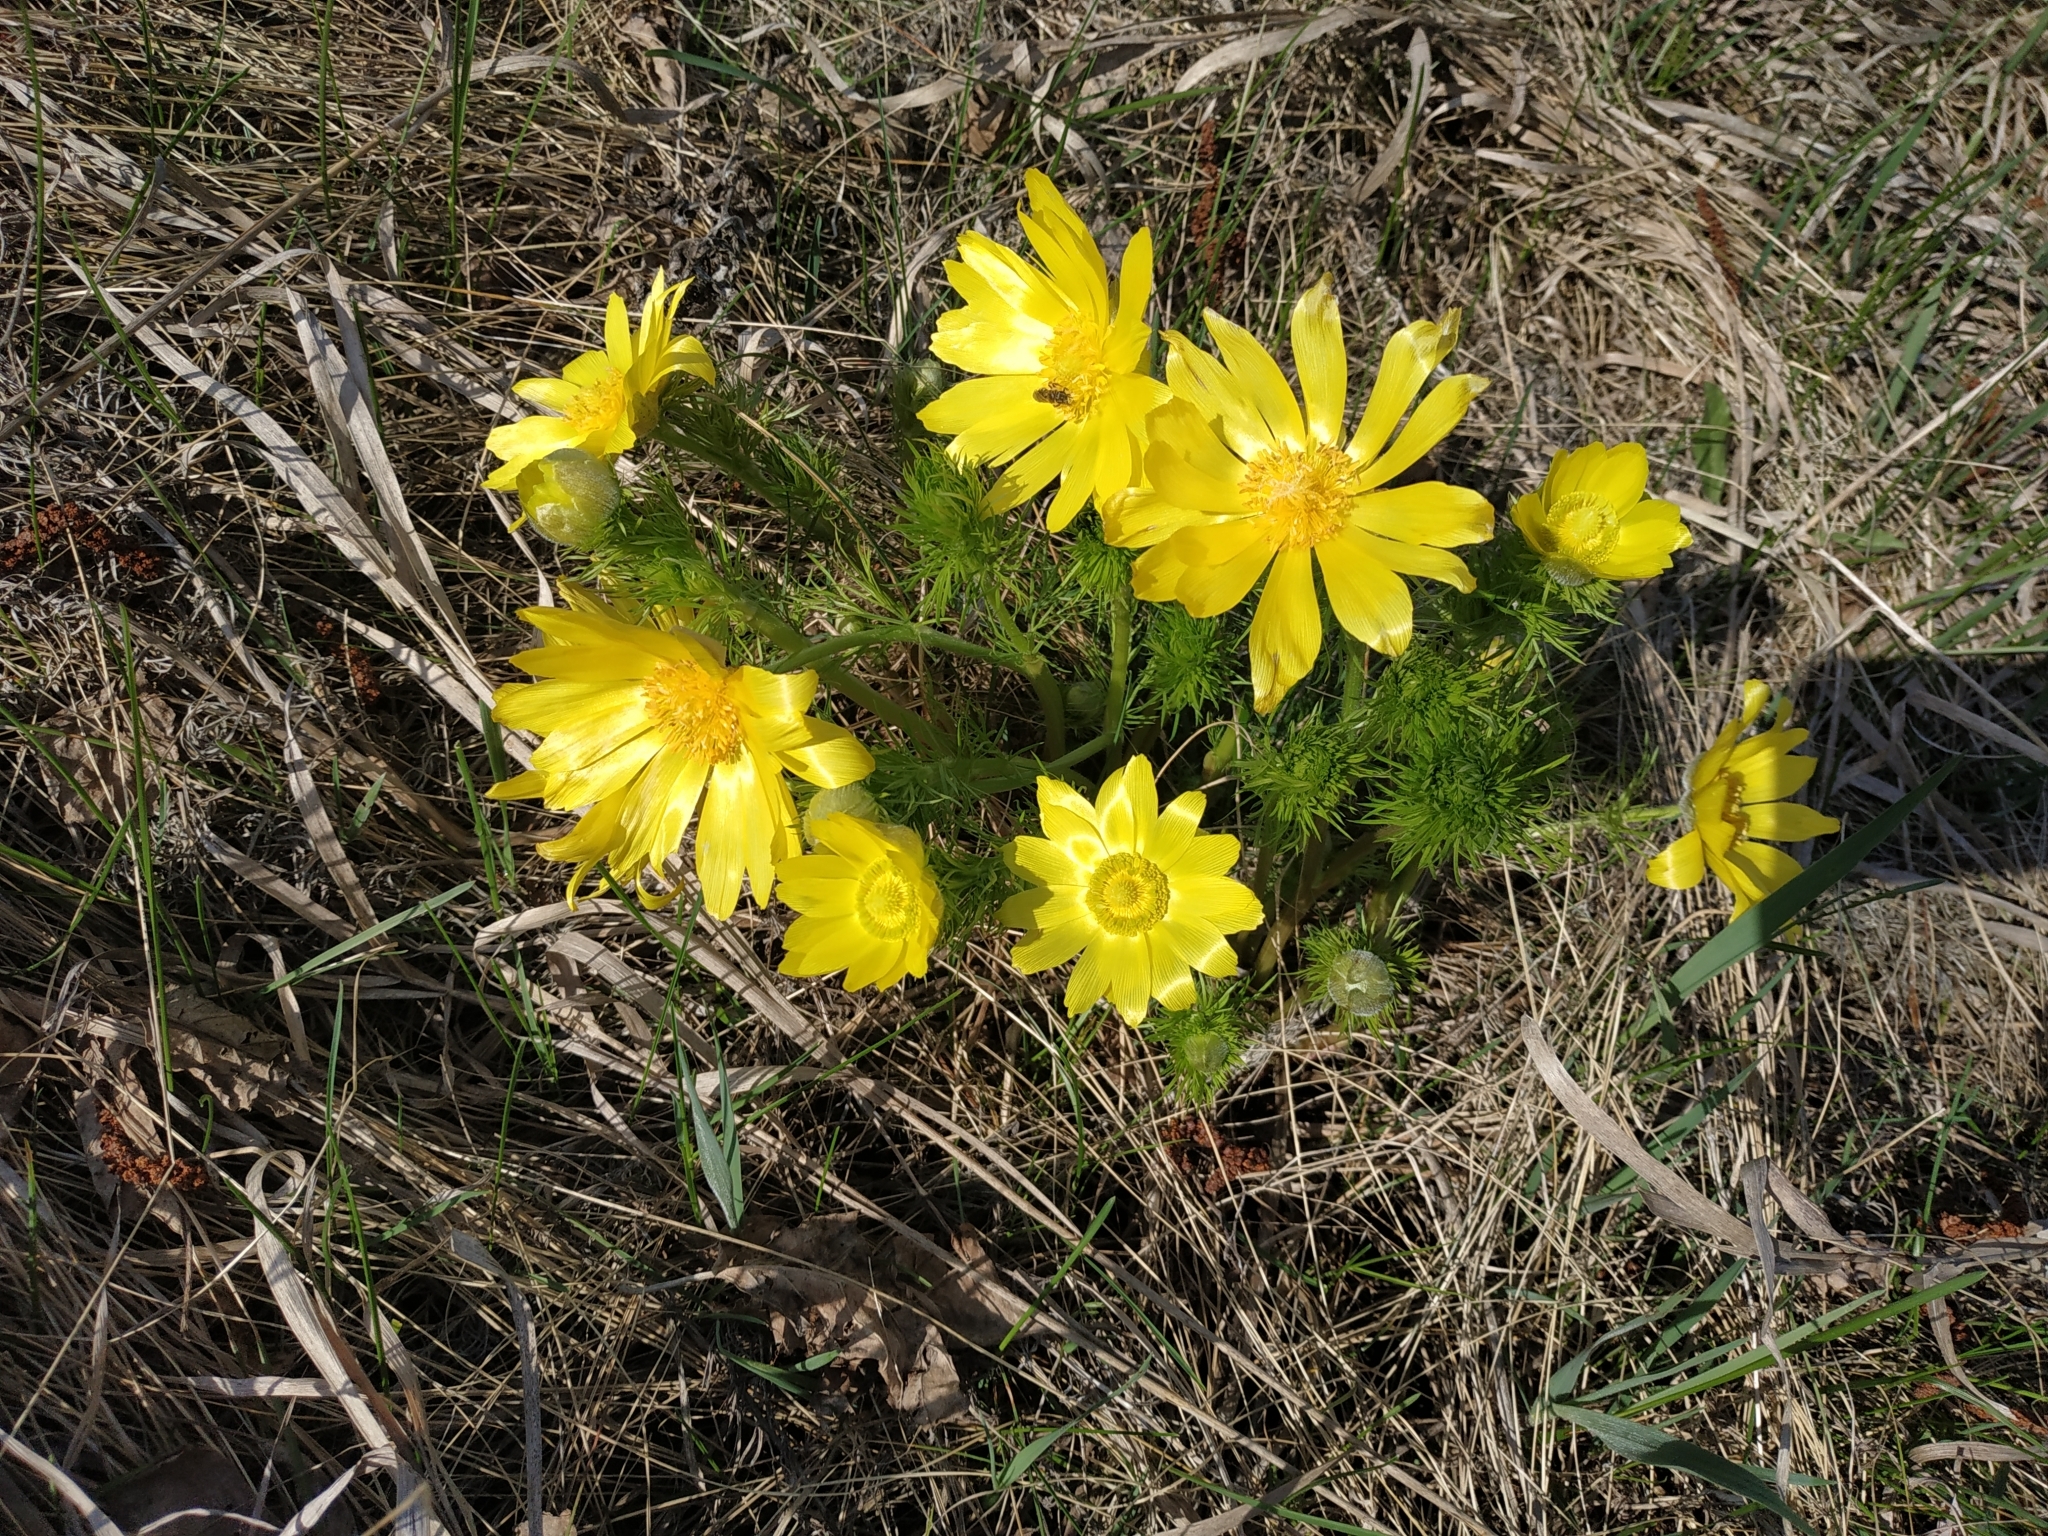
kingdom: Plantae
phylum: Tracheophyta
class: Magnoliopsida
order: Ranunculales
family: Ranunculaceae
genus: Adonis
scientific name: Adonis vernalis
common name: Yellow pheasants-eye
